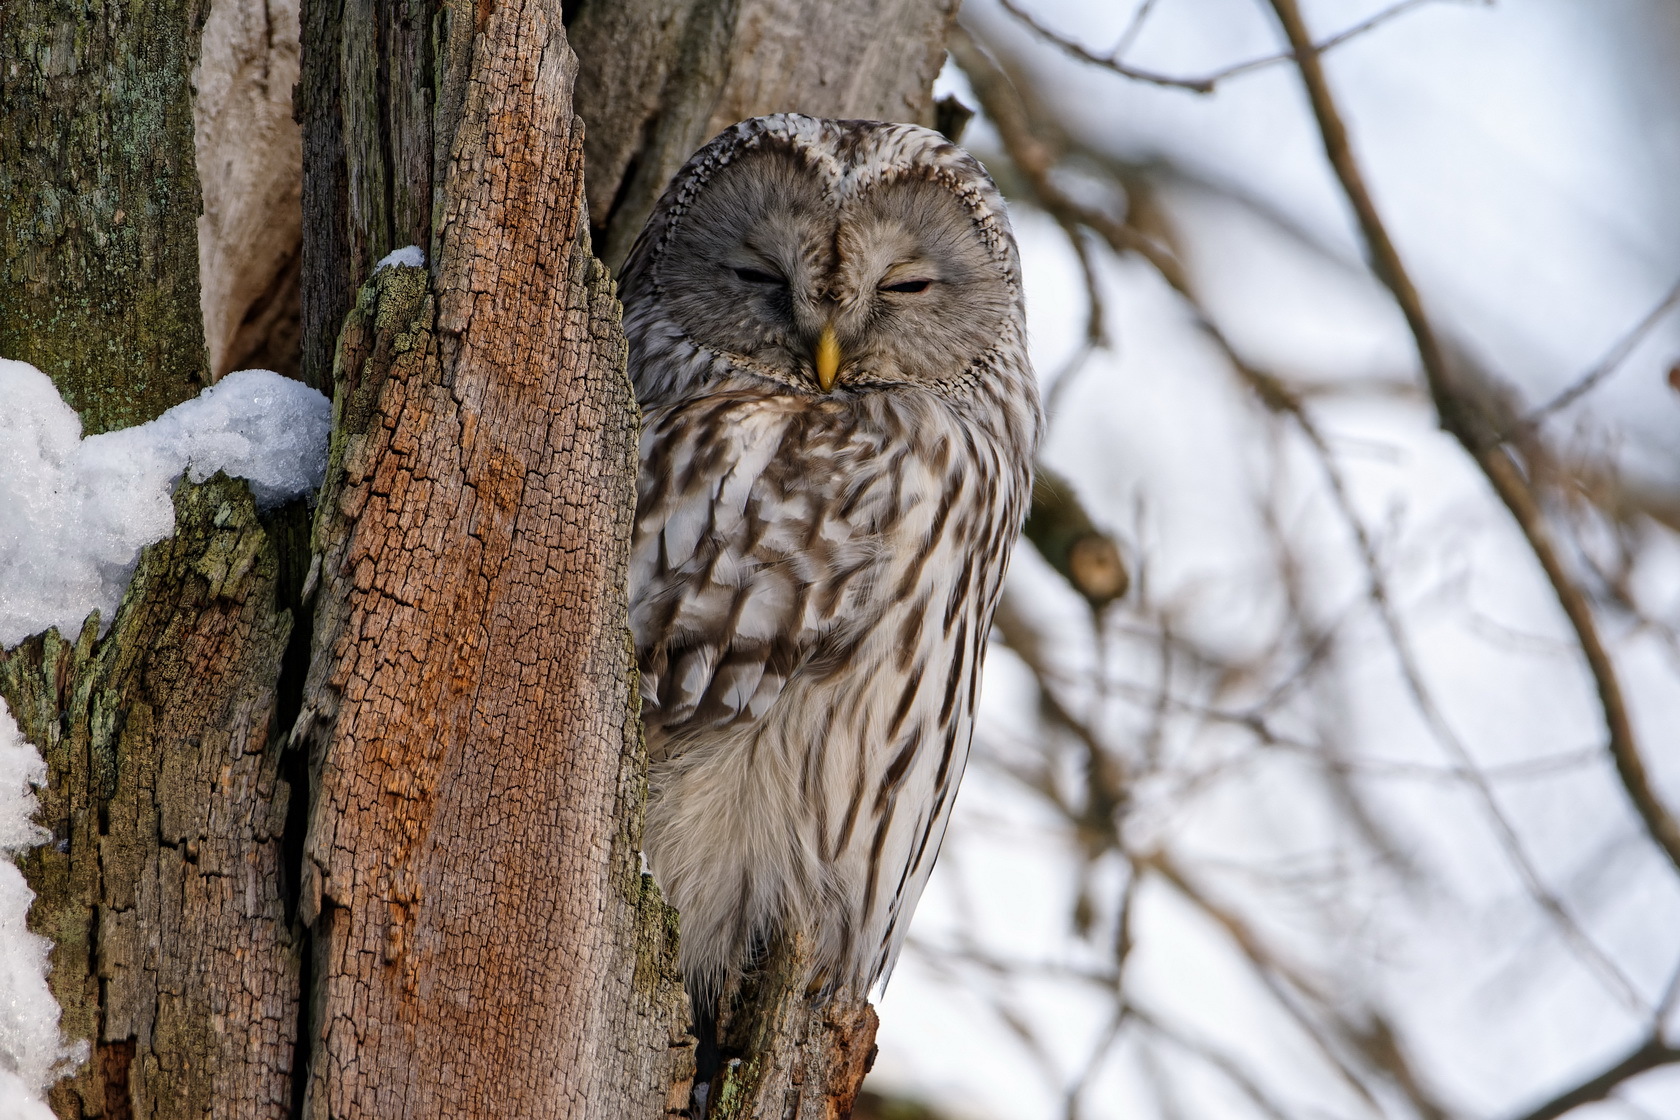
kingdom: Animalia
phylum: Chordata
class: Aves
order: Strigiformes
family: Strigidae
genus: Strix
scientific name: Strix uralensis
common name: Ural owl
